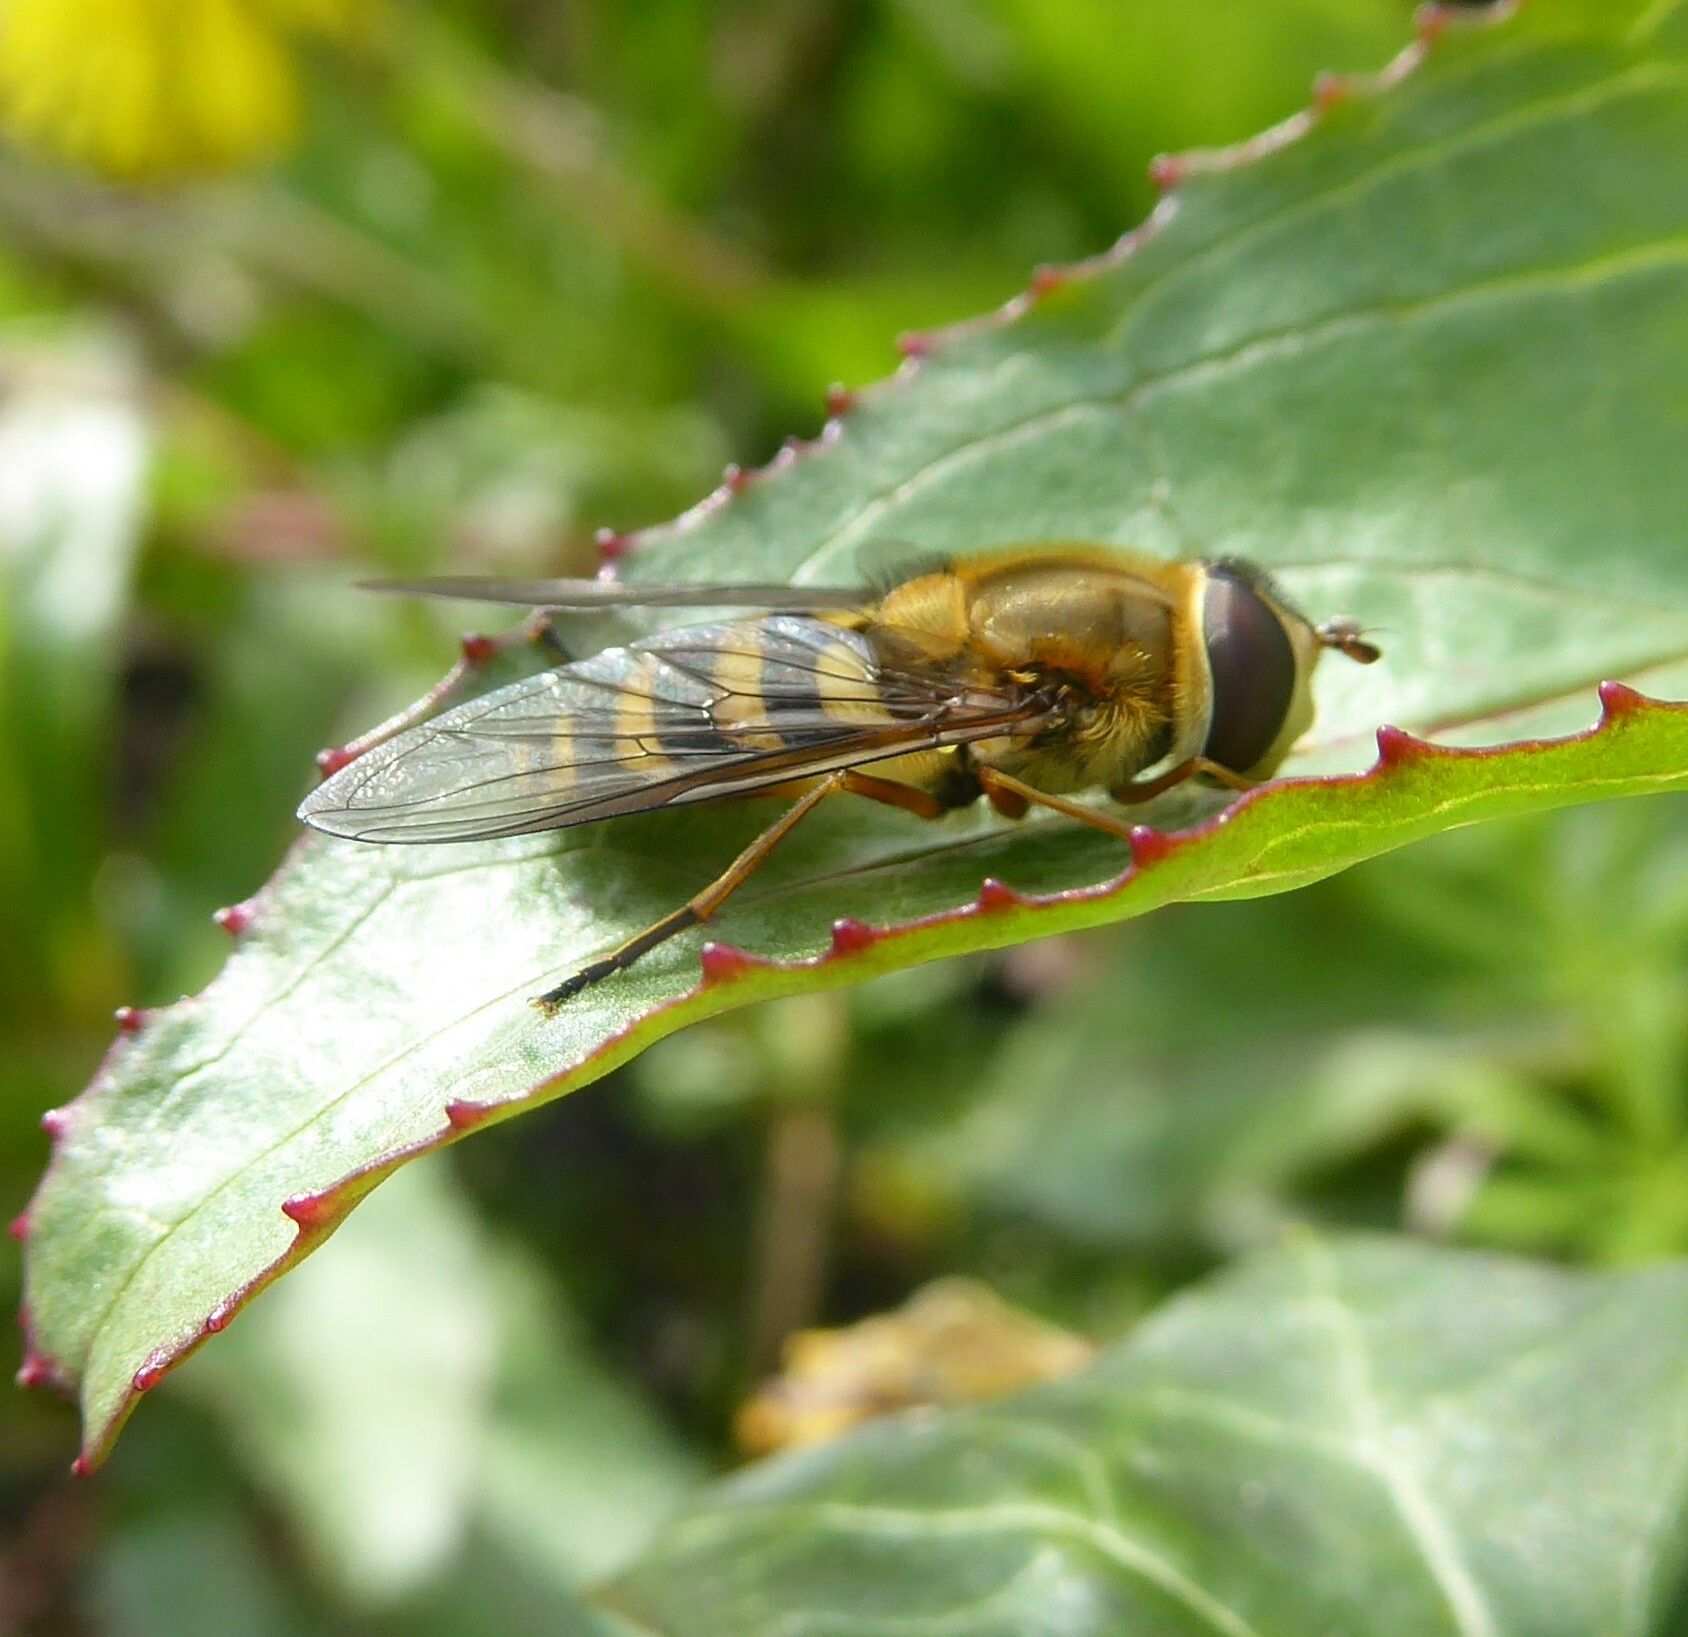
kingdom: Animalia
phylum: Arthropoda
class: Insecta
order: Diptera
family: Syrphidae
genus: Syrphus
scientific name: Syrphus ribesii
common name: Common flower fly
